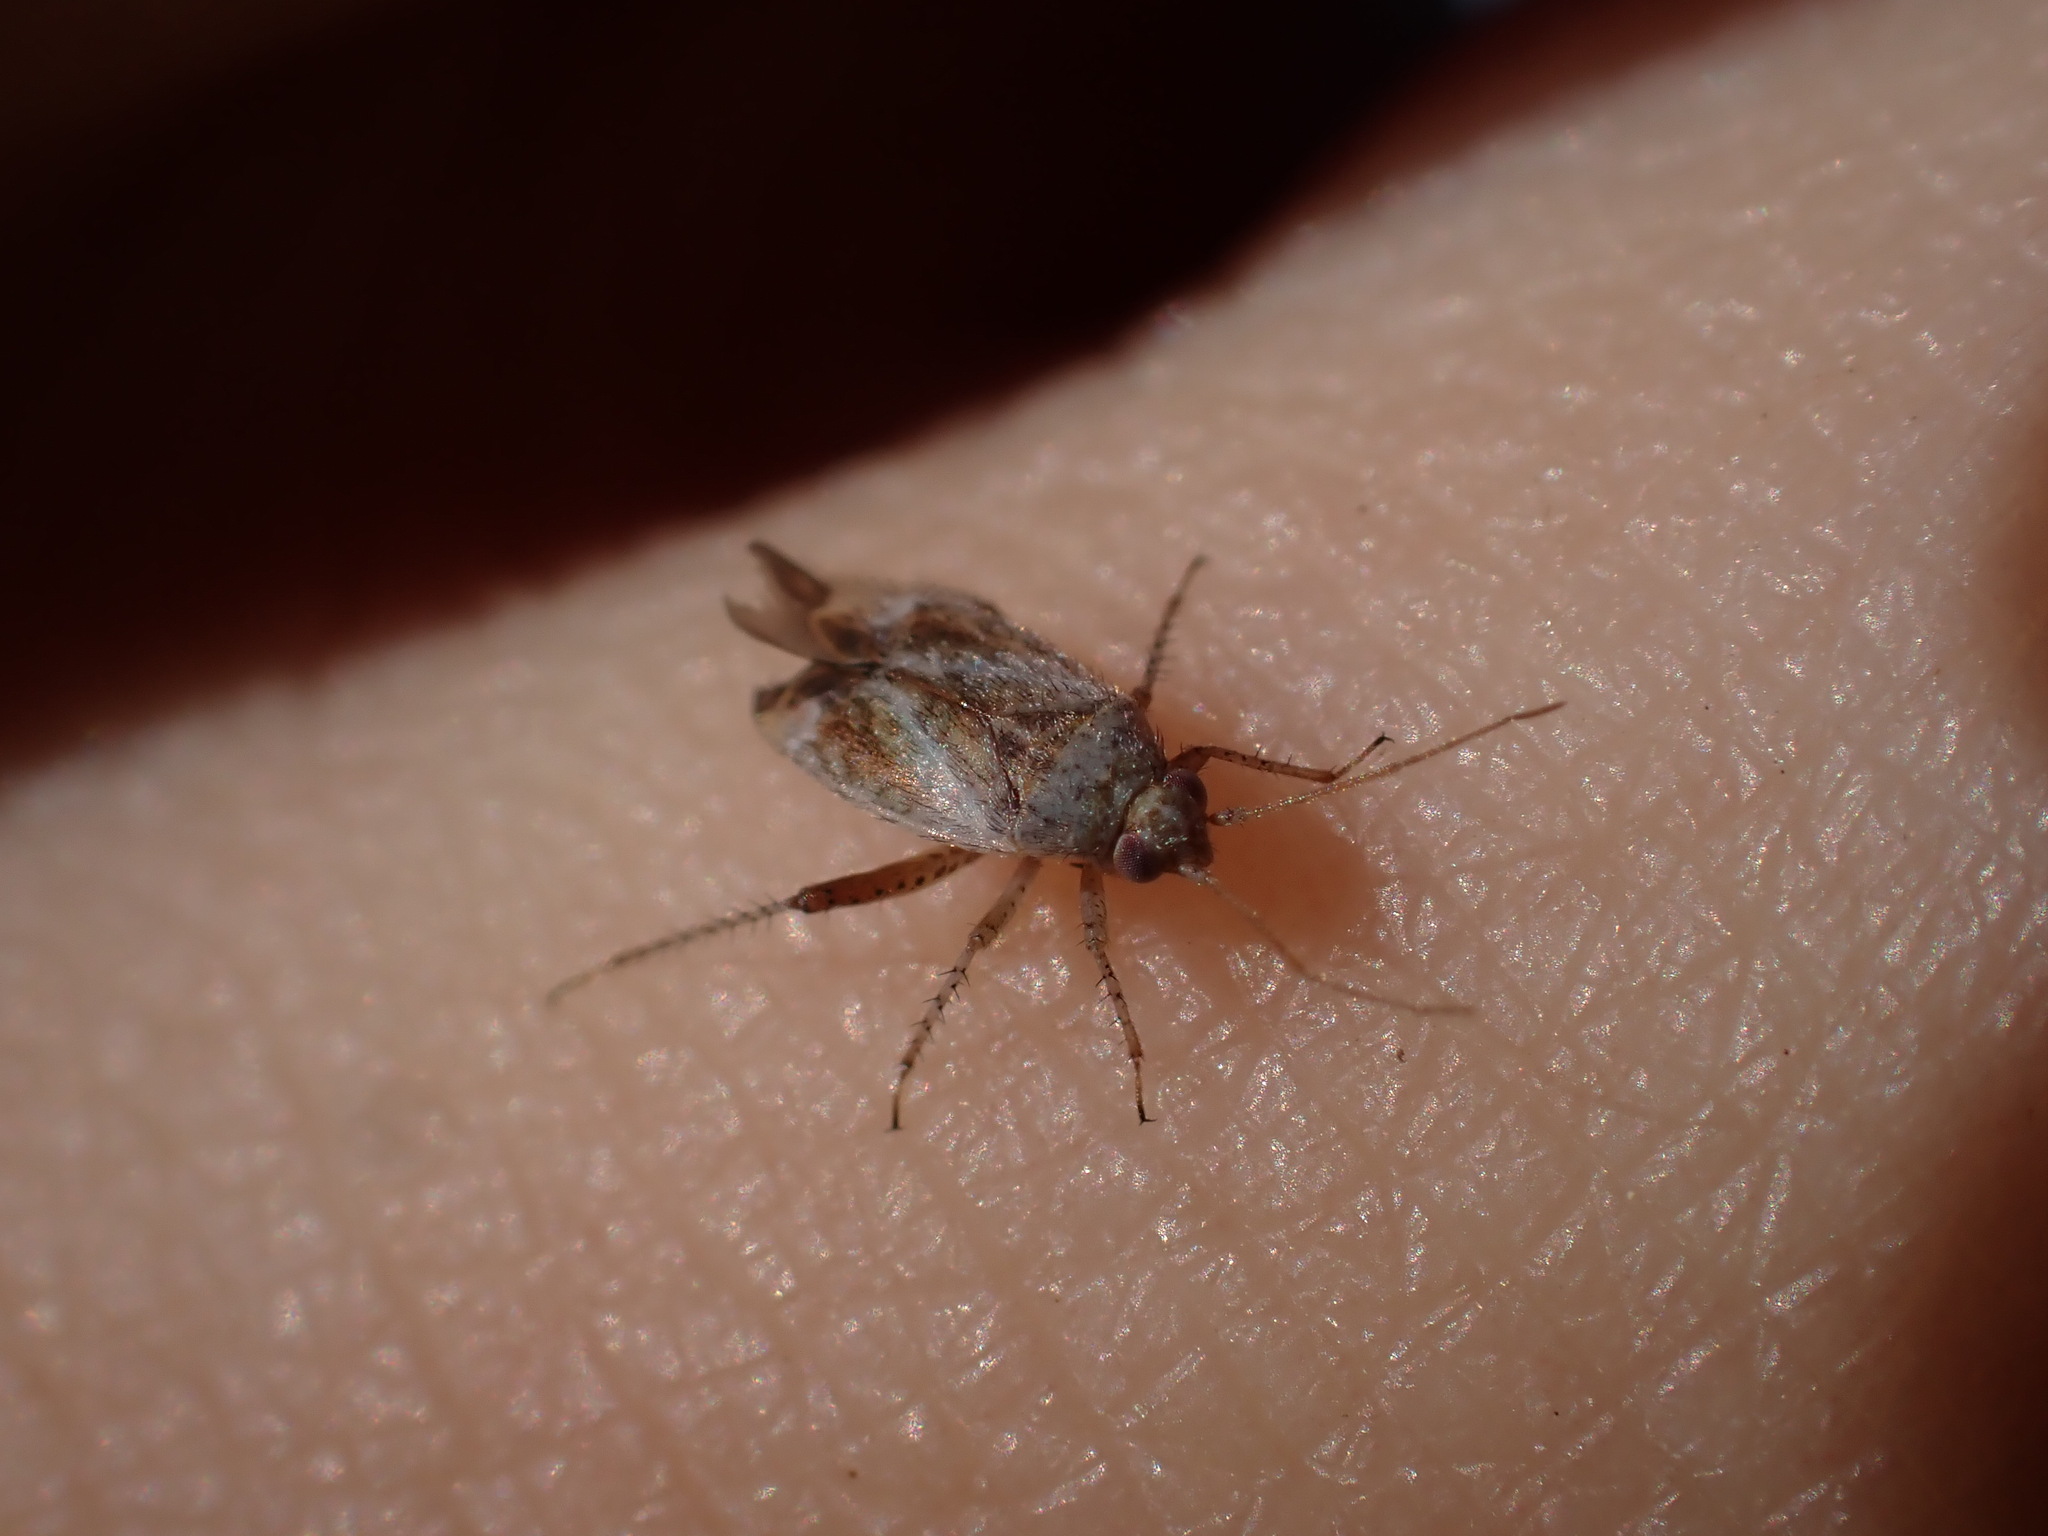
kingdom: Animalia
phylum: Arthropoda
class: Insecta
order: Hemiptera
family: Miridae
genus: Compsidolon
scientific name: Compsidolon crotchi
